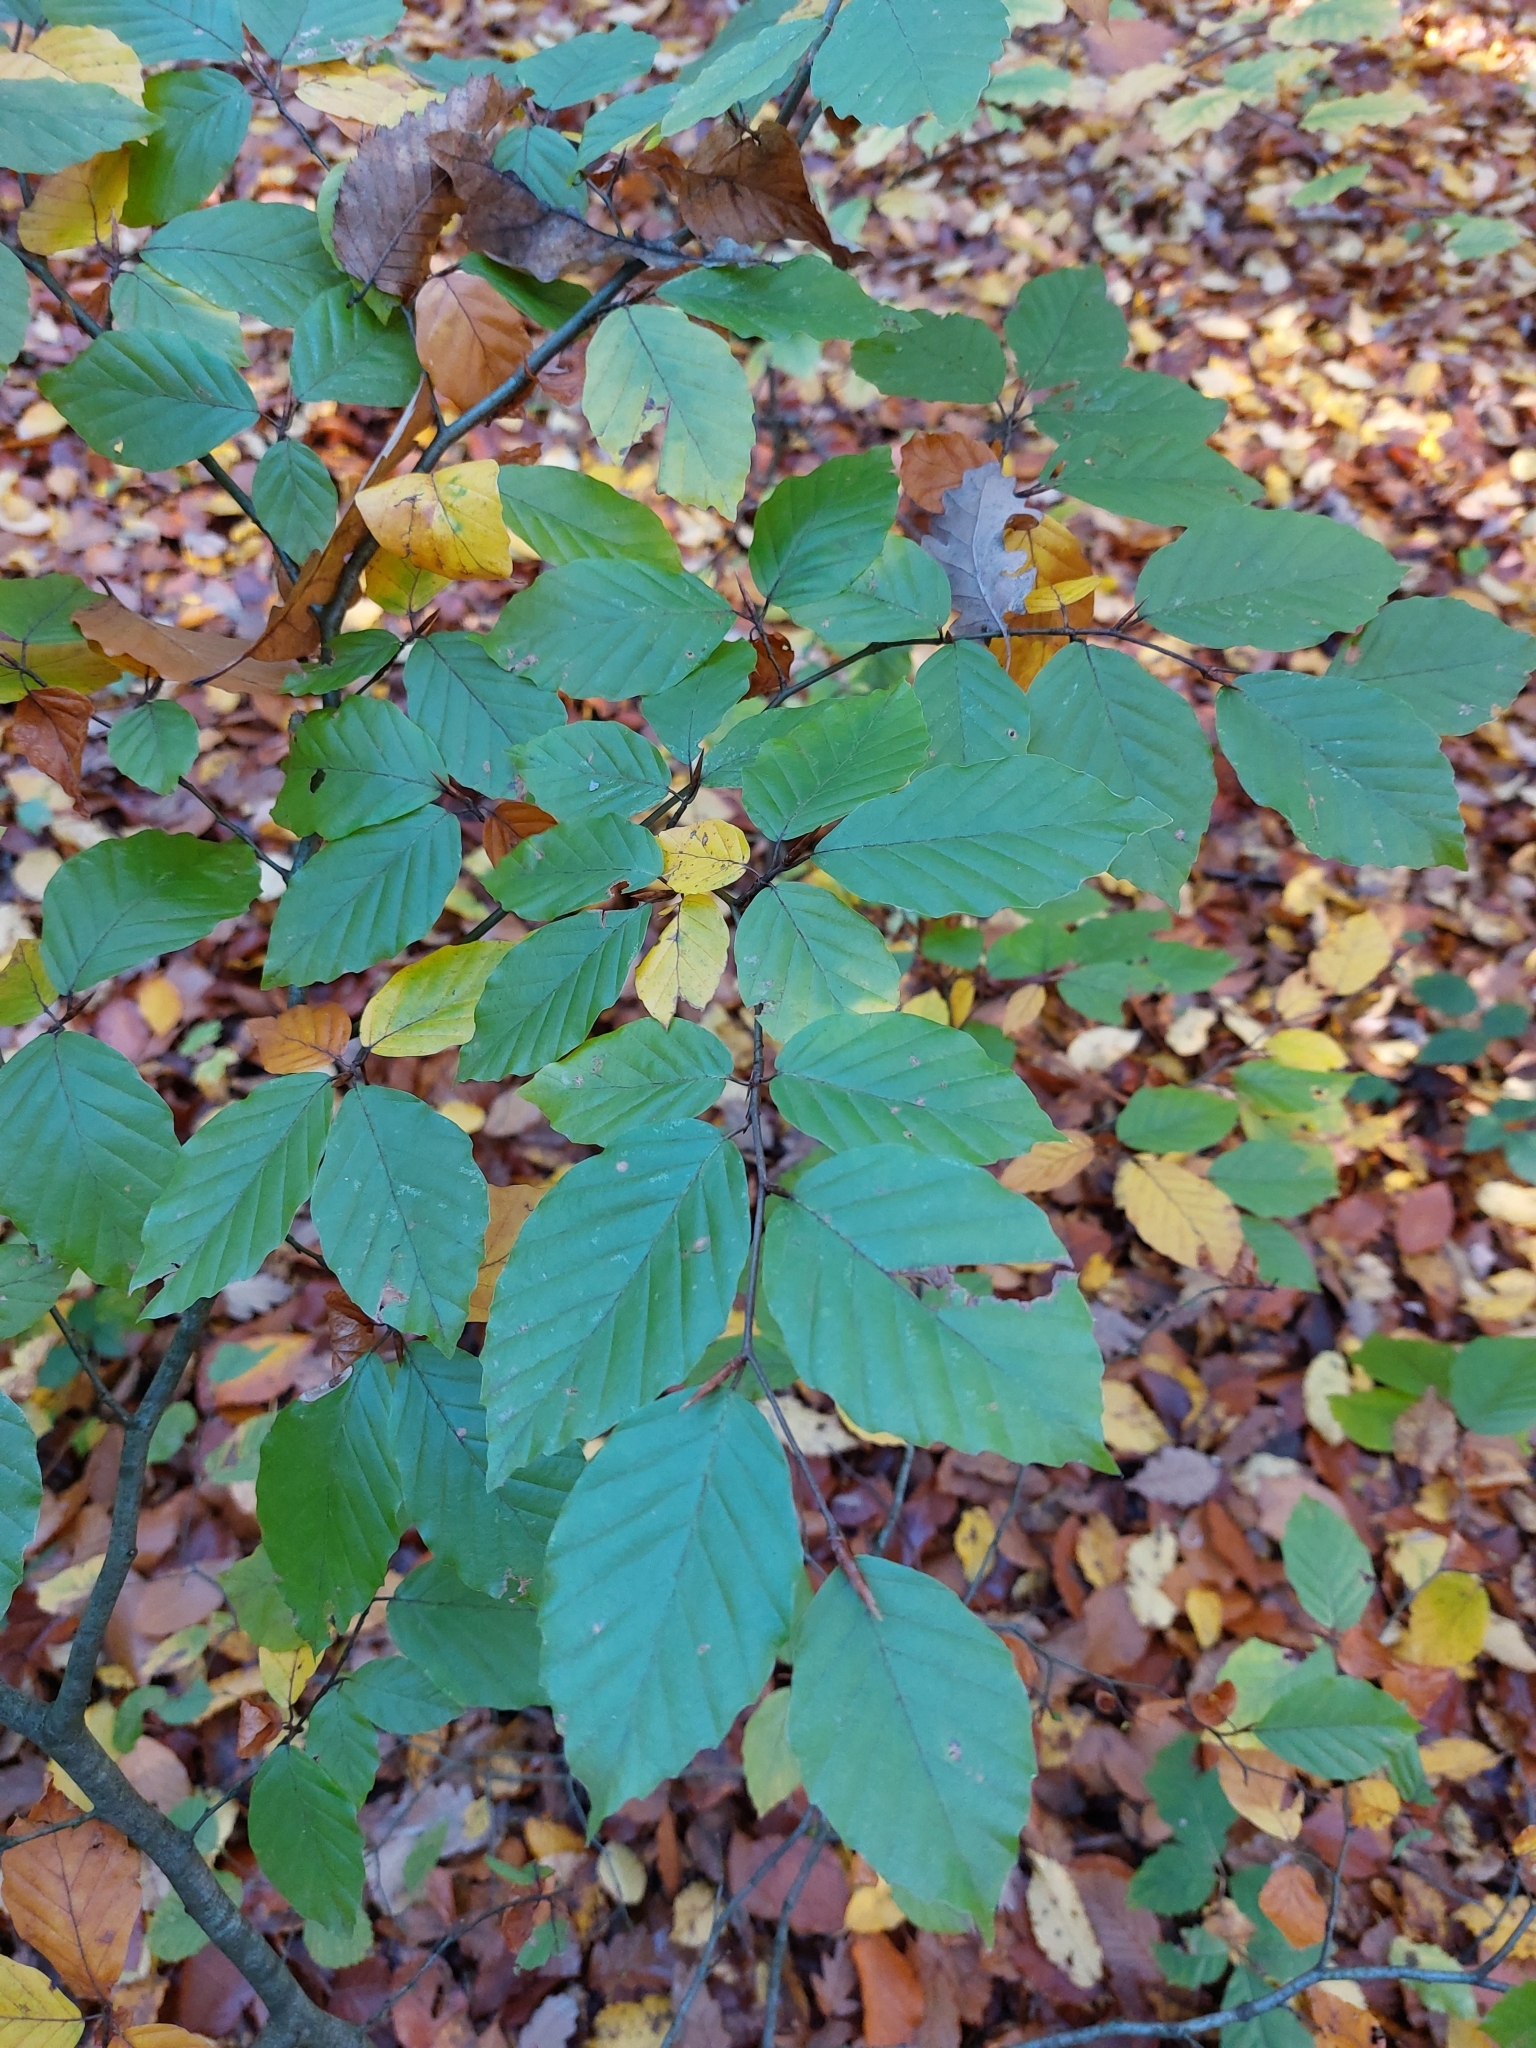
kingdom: Plantae
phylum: Tracheophyta
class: Magnoliopsida
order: Fagales
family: Fagaceae
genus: Fagus
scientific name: Fagus sylvatica
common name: Beech
